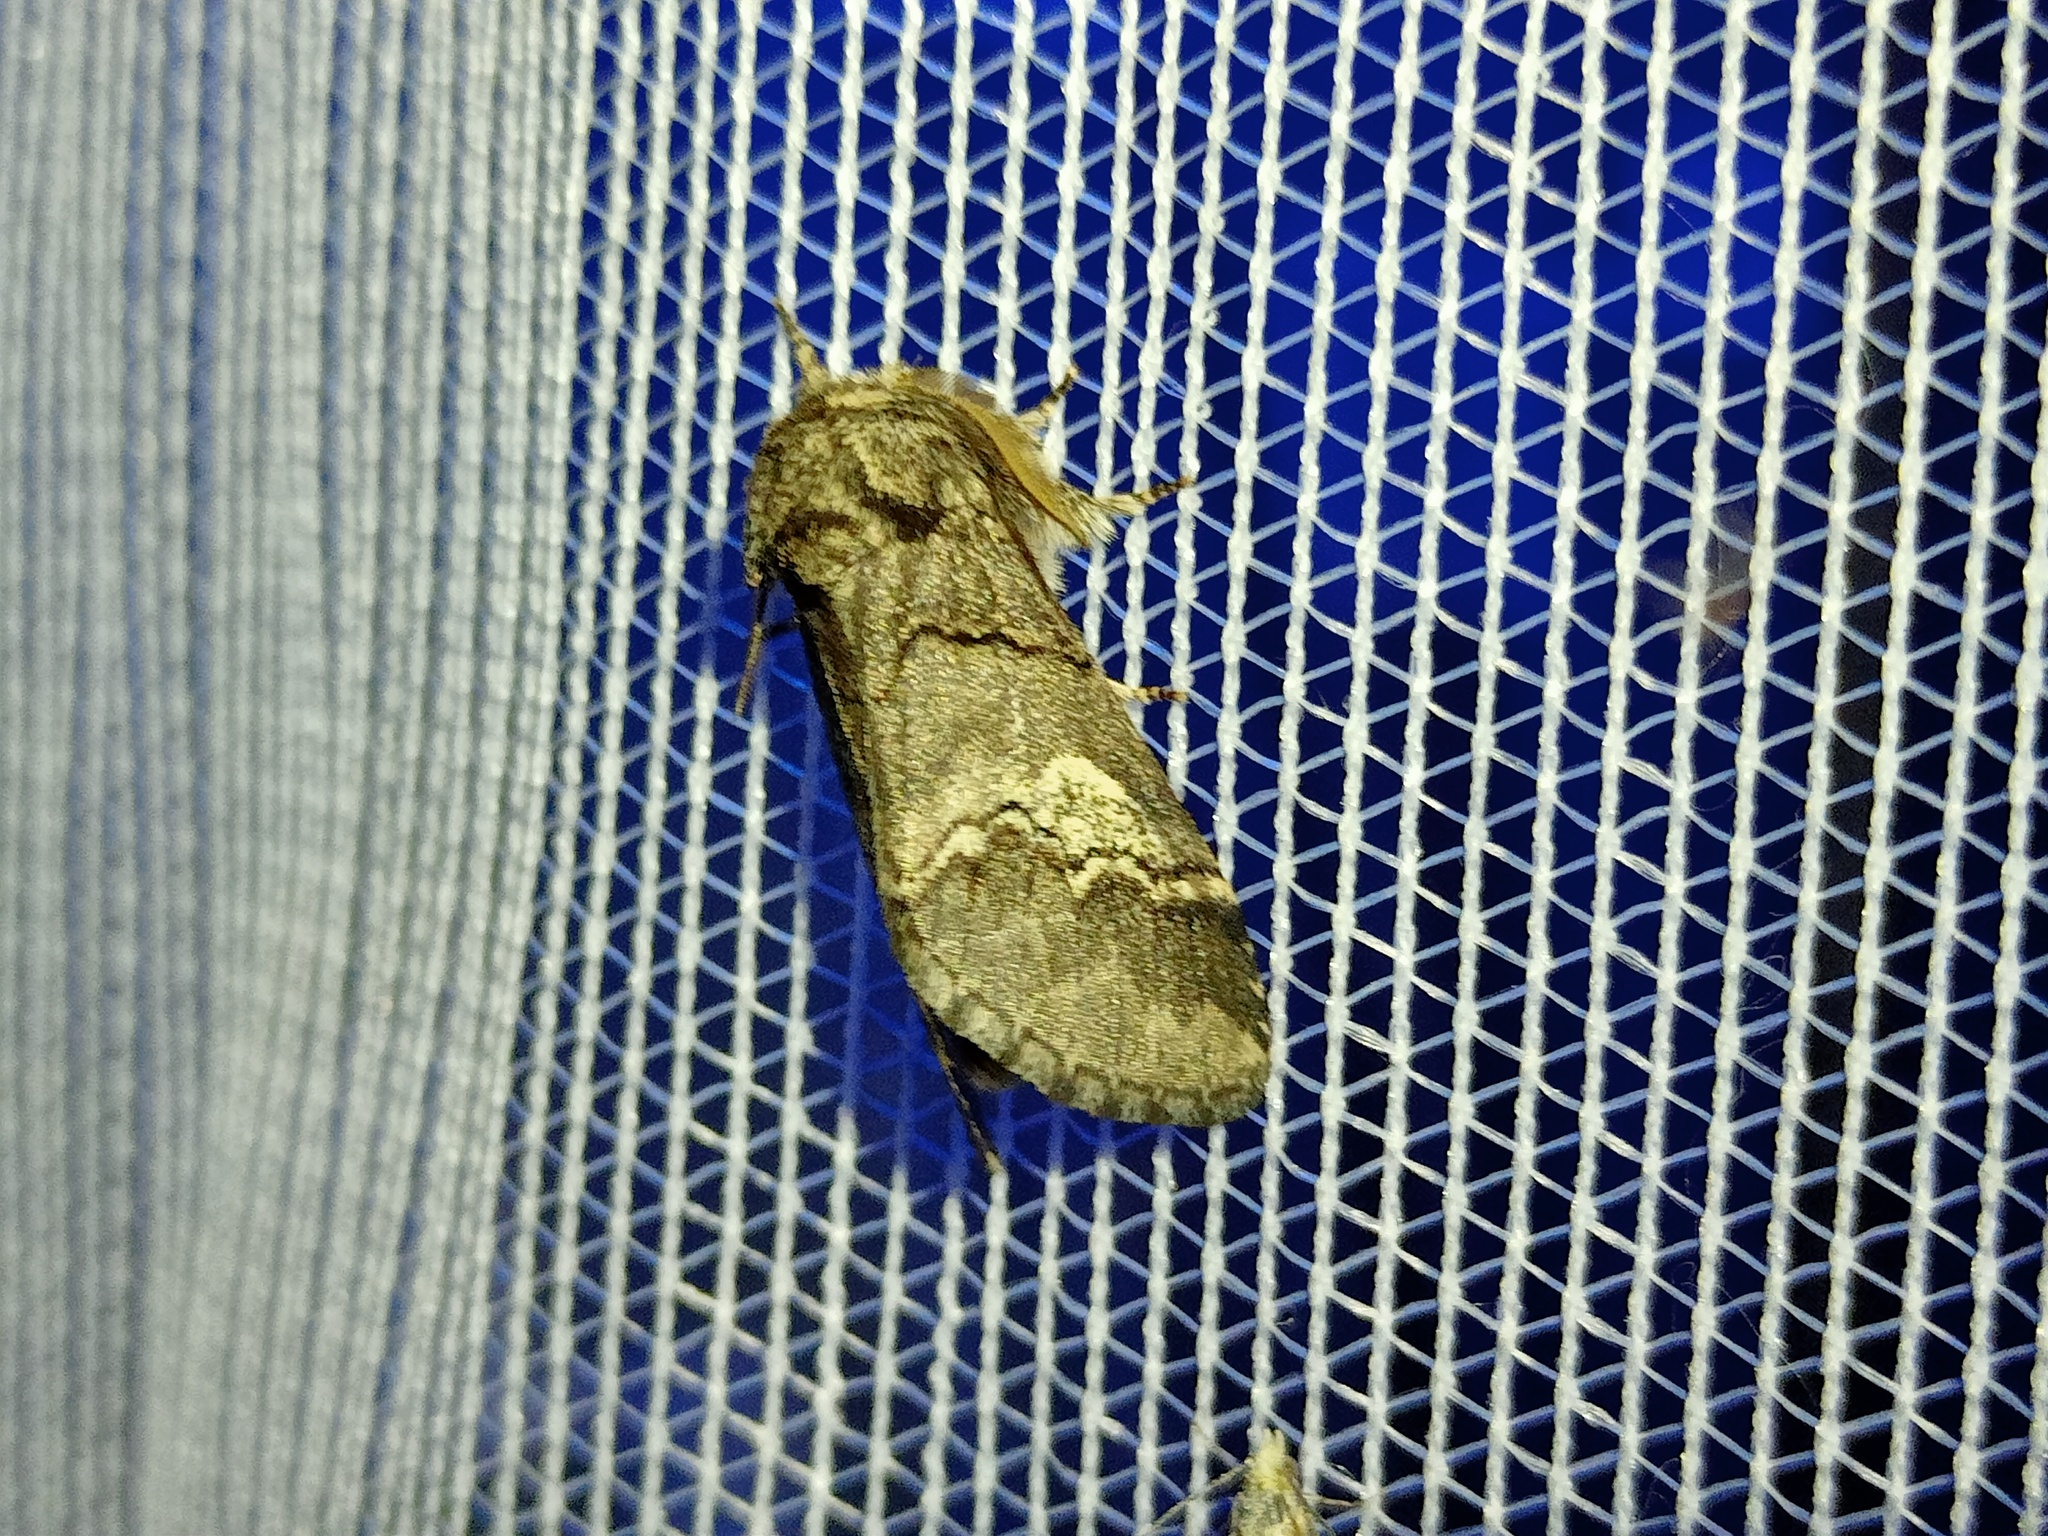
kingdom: Animalia
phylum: Arthropoda
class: Insecta
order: Lepidoptera
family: Notodontidae
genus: Drymonia
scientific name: Drymonia querna
